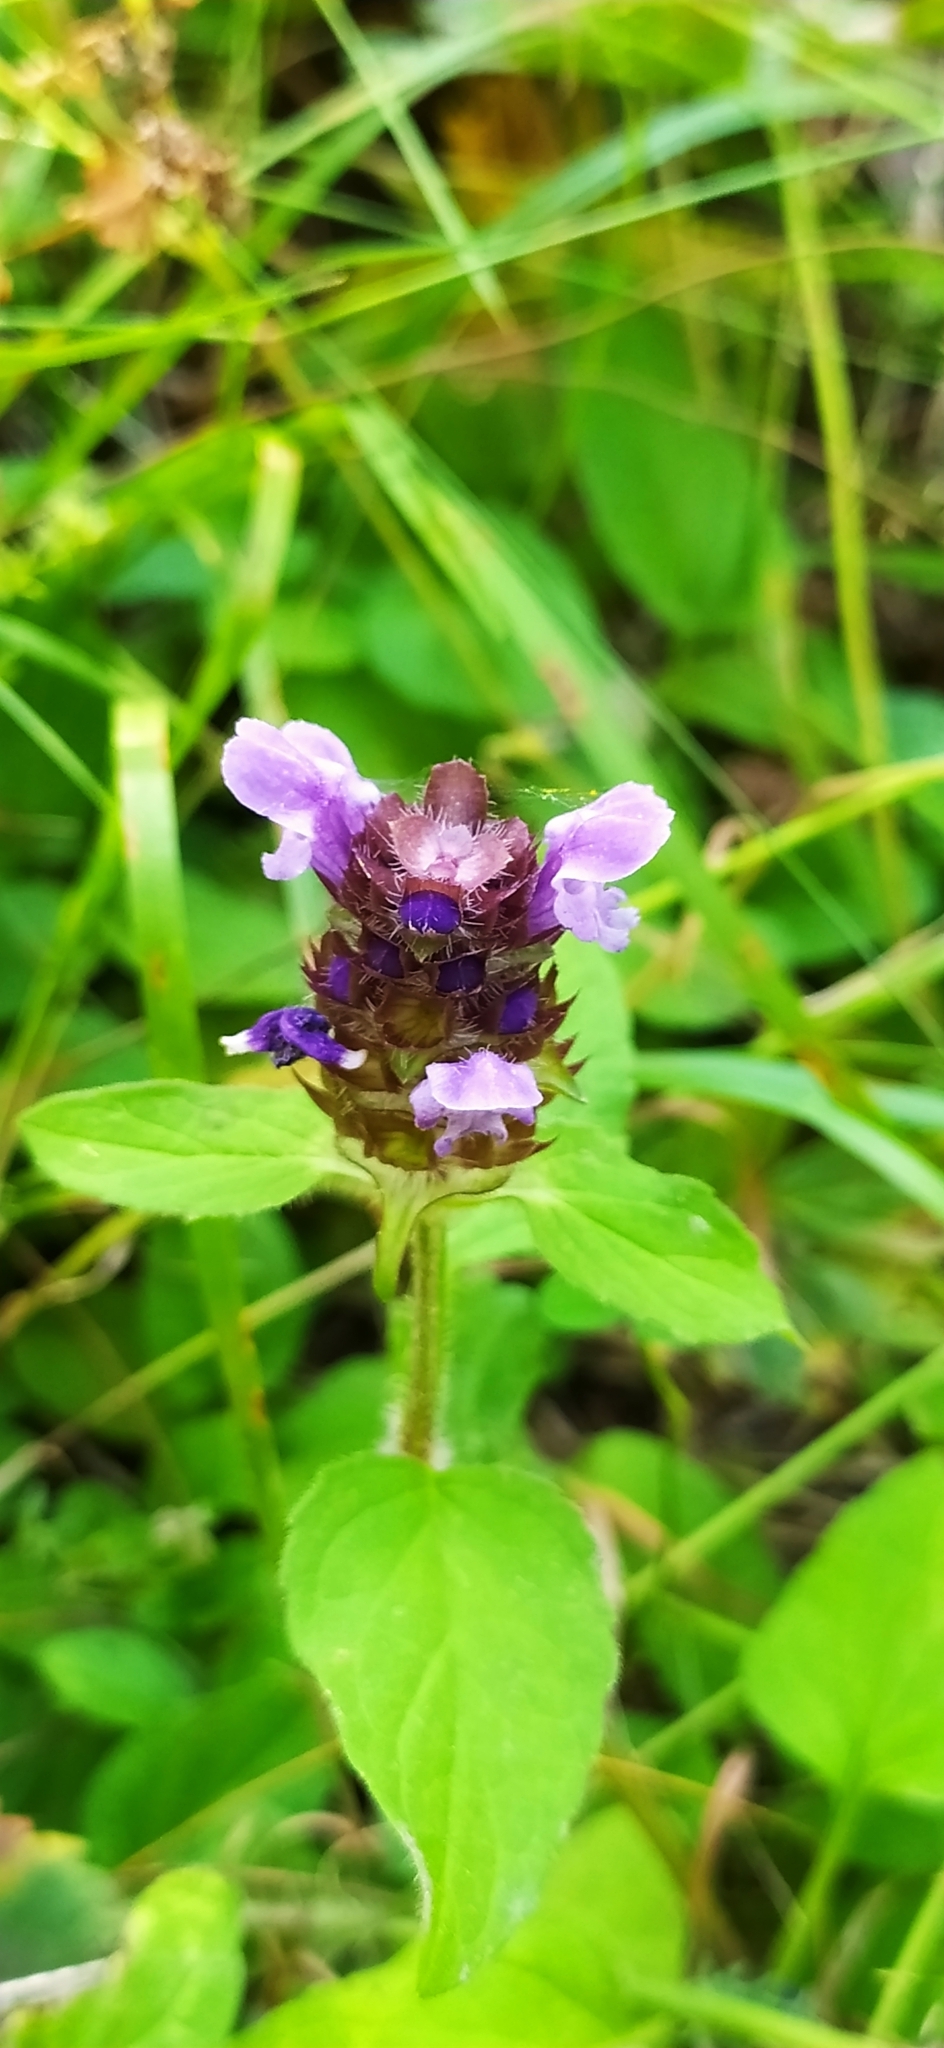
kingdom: Plantae
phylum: Tracheophyta
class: Magnoliopsida
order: Lamiales
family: Lamiaceae
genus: Prunella
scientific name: Prunella vulgaris
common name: Heal-all
